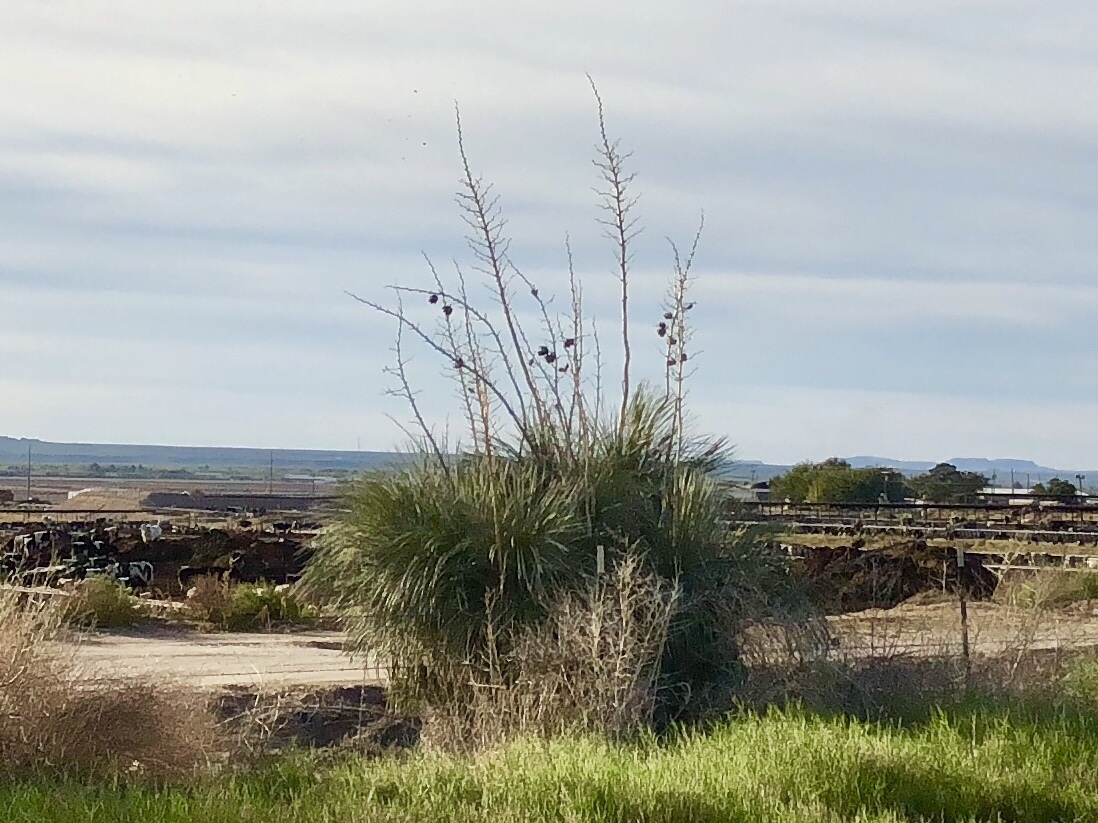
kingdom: Plantae
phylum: Tracheophyta
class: Liliopsida
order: Asparagales
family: Asparagaceae
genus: Yucca
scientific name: Yucca elata
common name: Palmella
